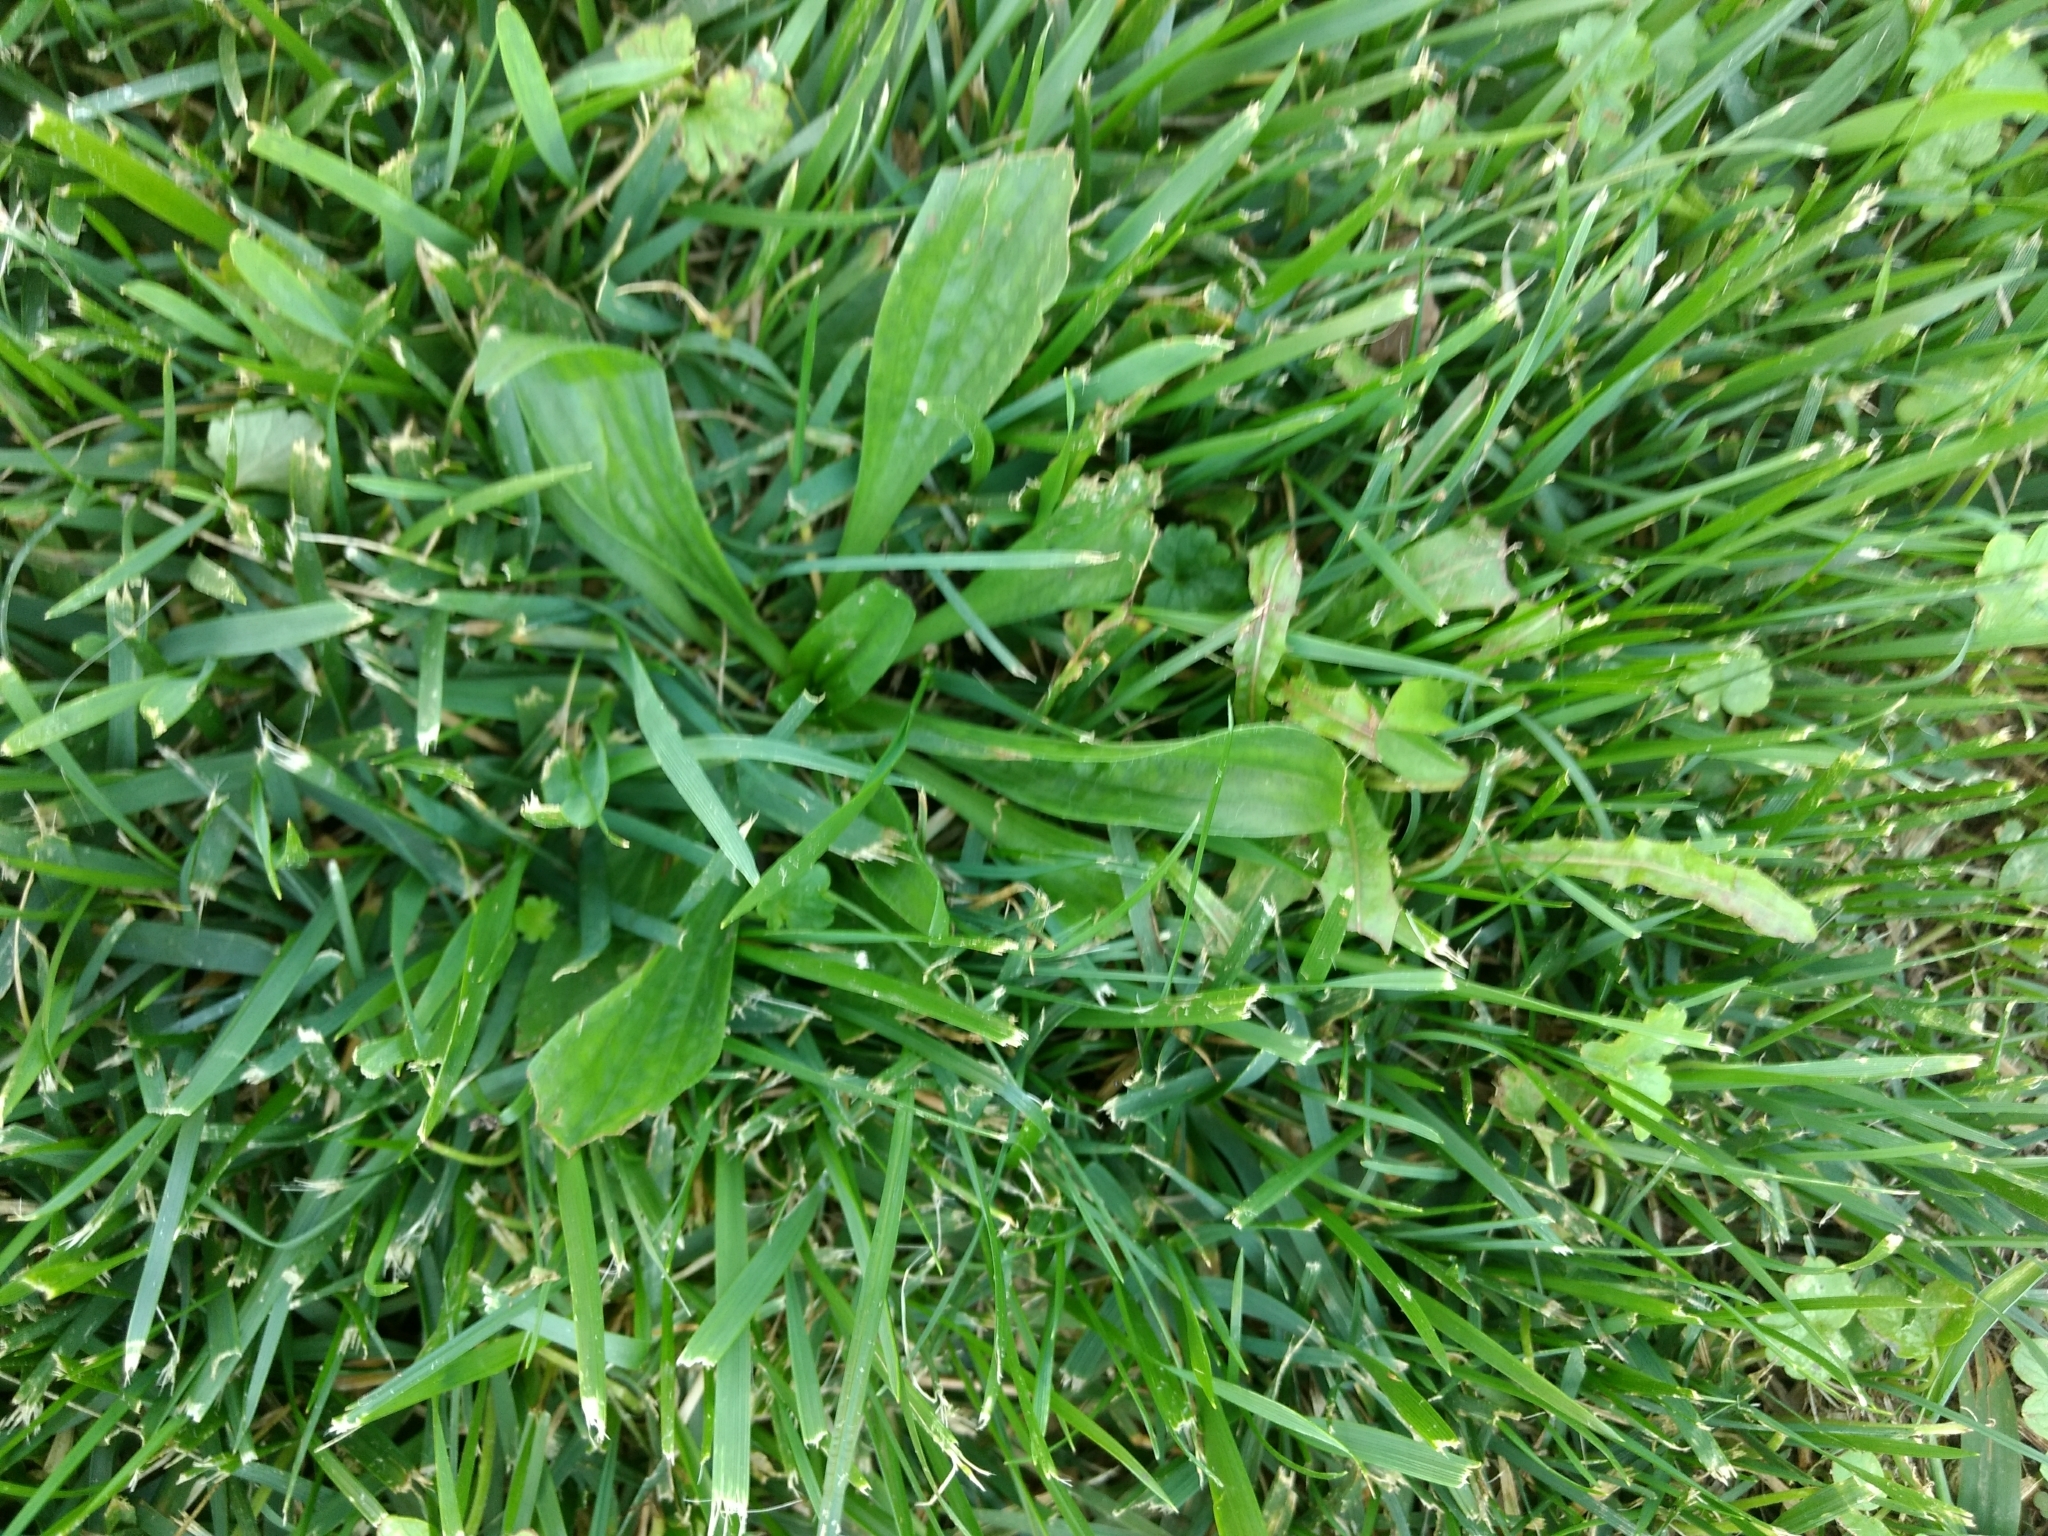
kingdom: Plantae
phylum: Tracheophyta
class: Magnoliopsida
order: Lamiales
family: Plantaginaceae
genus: Plantago
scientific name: Plantago lanceolata
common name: Ribwort plantain
